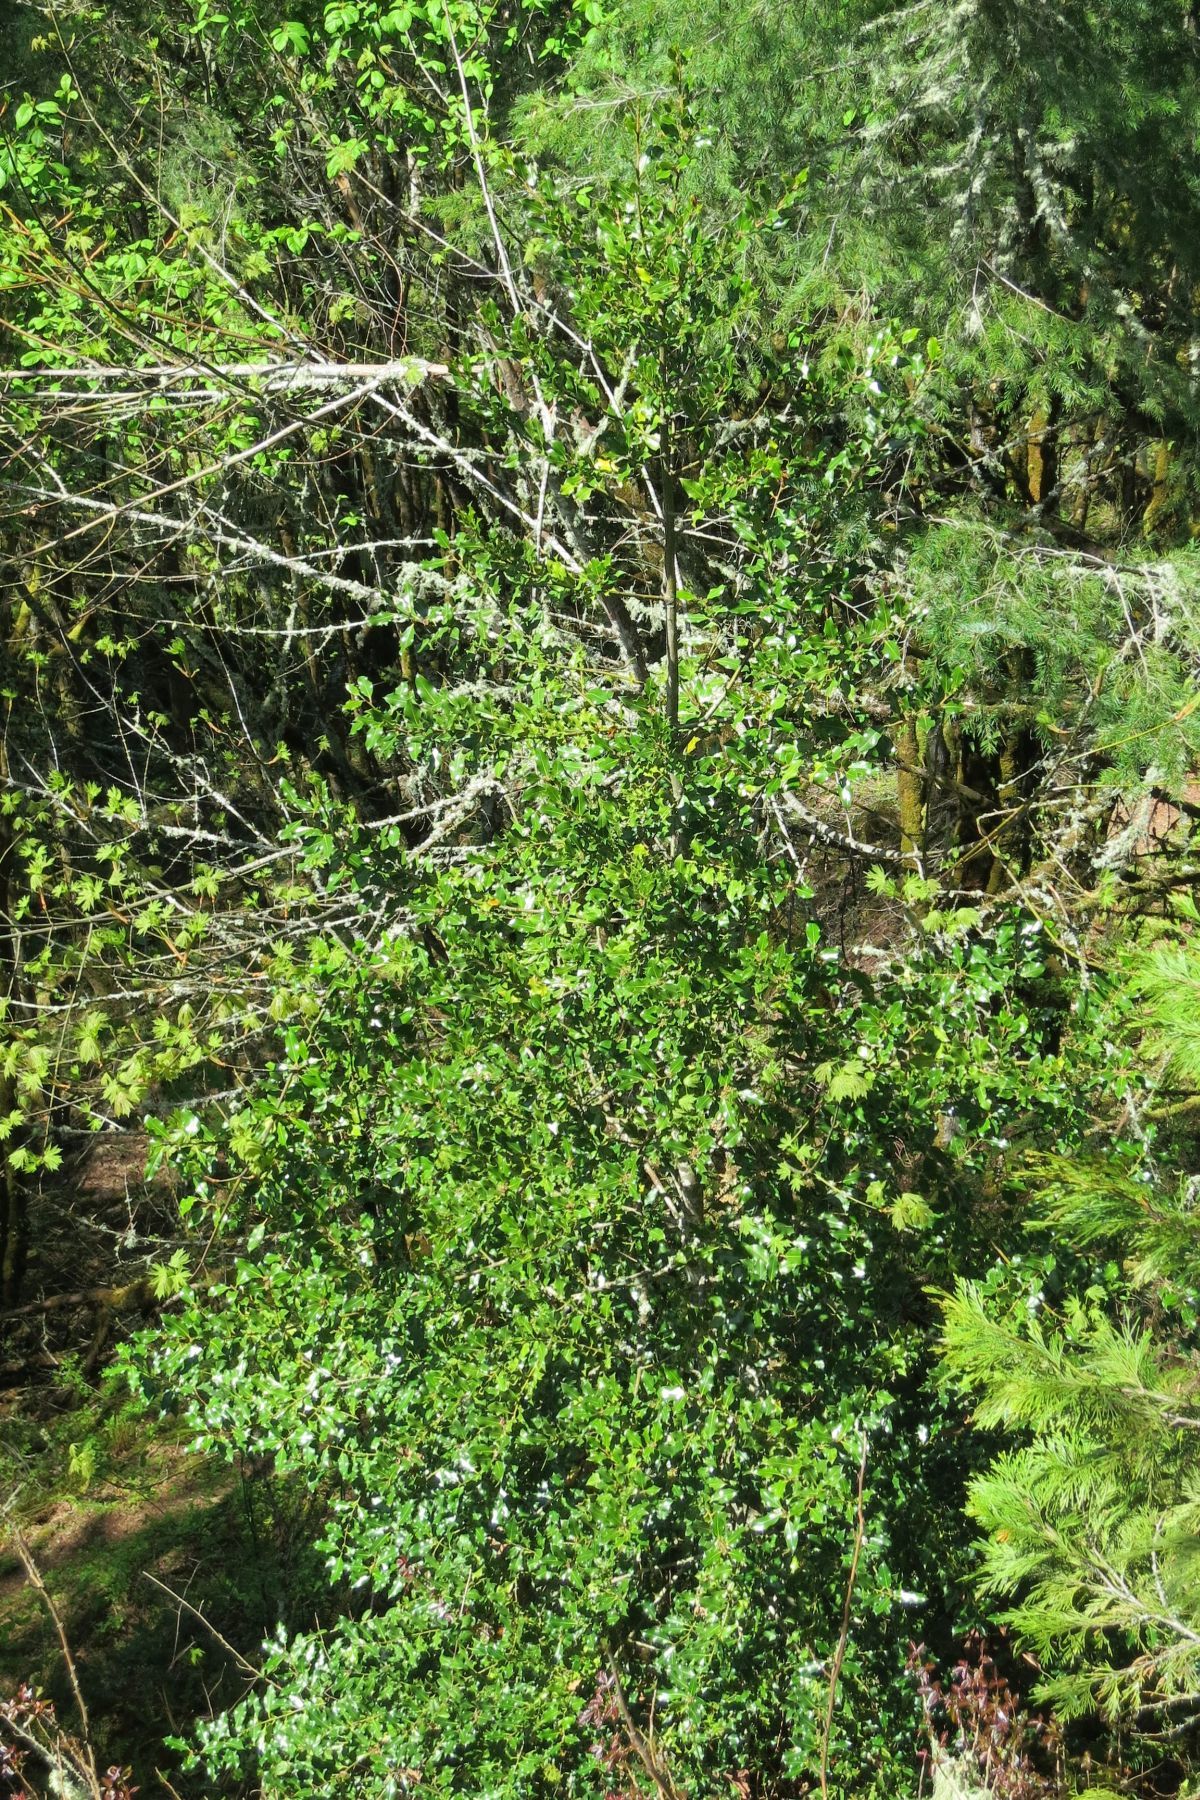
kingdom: Plantae
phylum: Tracheophyta
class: Magnoliopsida
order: Aquifoliales
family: Aquifoliaceae
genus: Ilex
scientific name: Ilex aquifolium
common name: English holly
